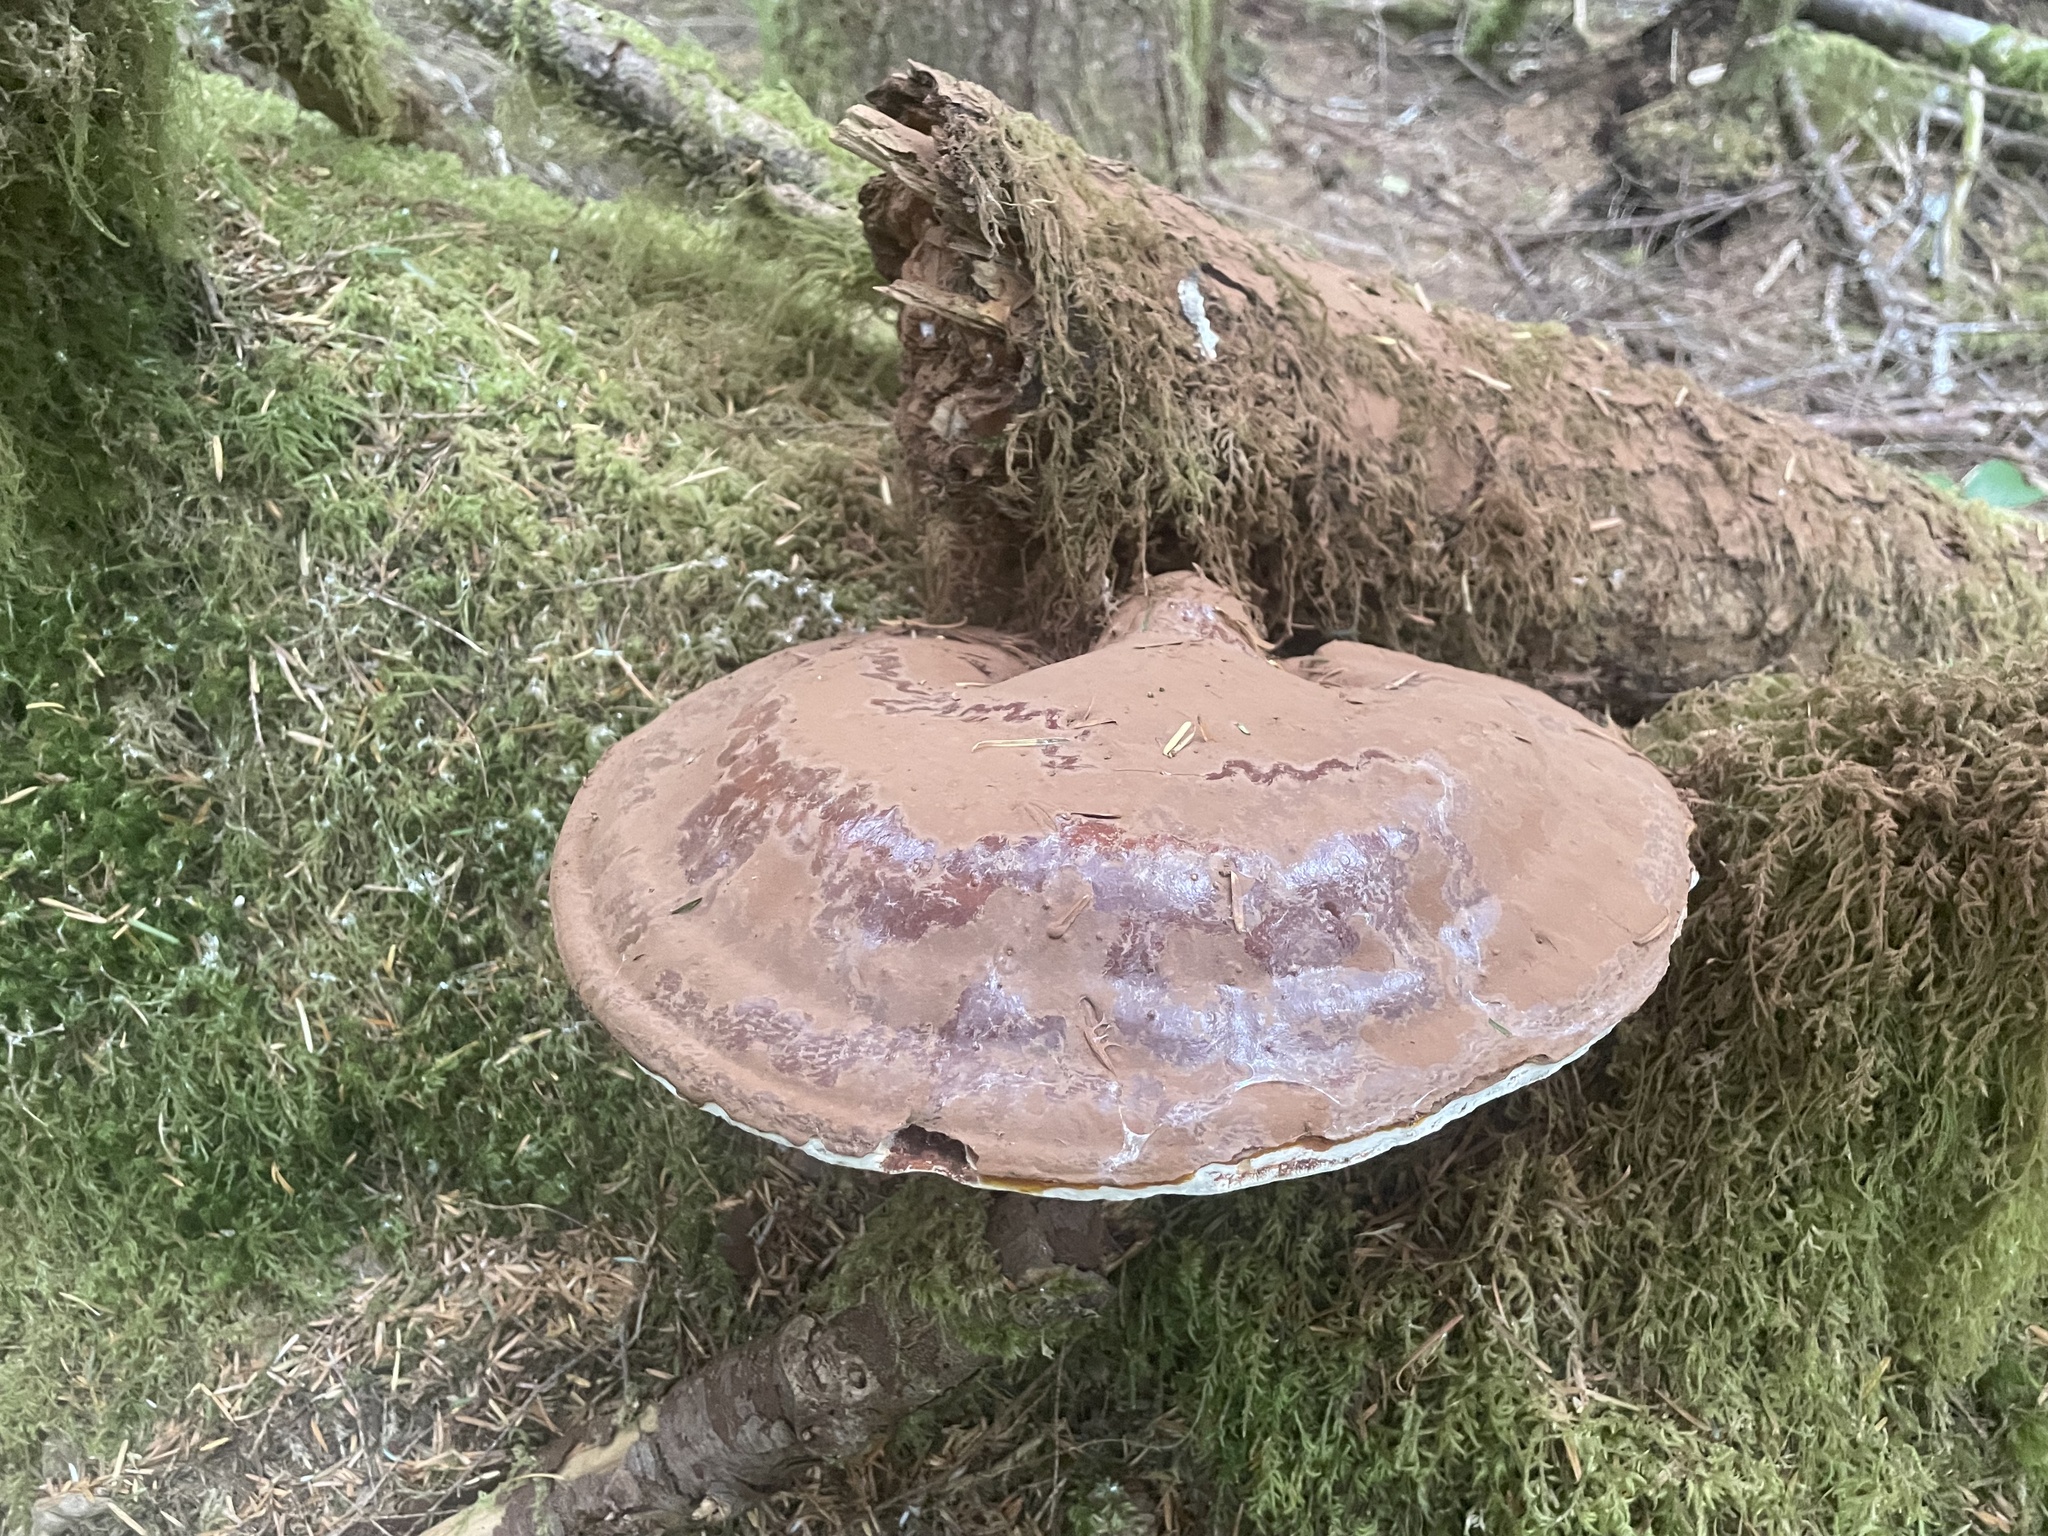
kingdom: Fungi
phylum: Basidiomycota
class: Agaricomycetes
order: Polyporales
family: Polyporaceae
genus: Ganoderma
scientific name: Ganoderma oregonense
